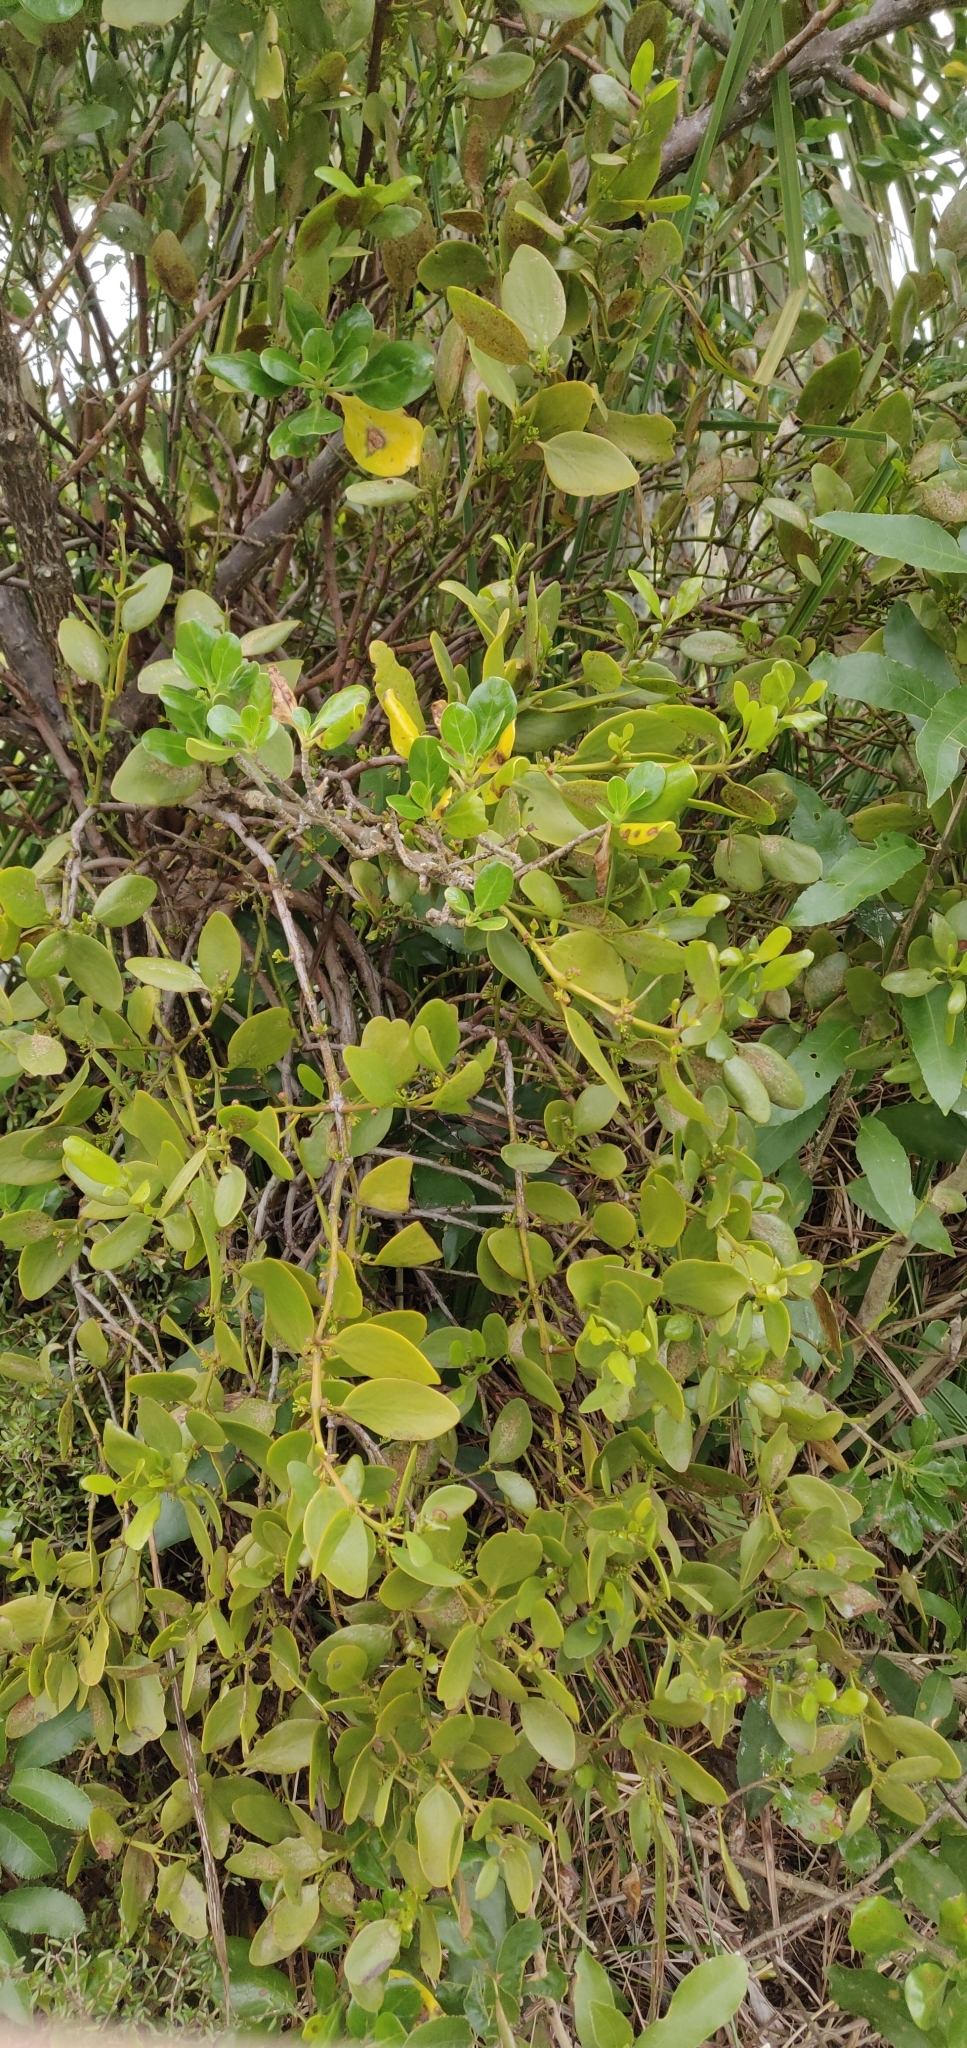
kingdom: Plantae
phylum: Tracheophyta
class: Magnoliopsida
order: Santalales
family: Loranthaceae
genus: Ileostylus
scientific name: Ileostylus micranthus
